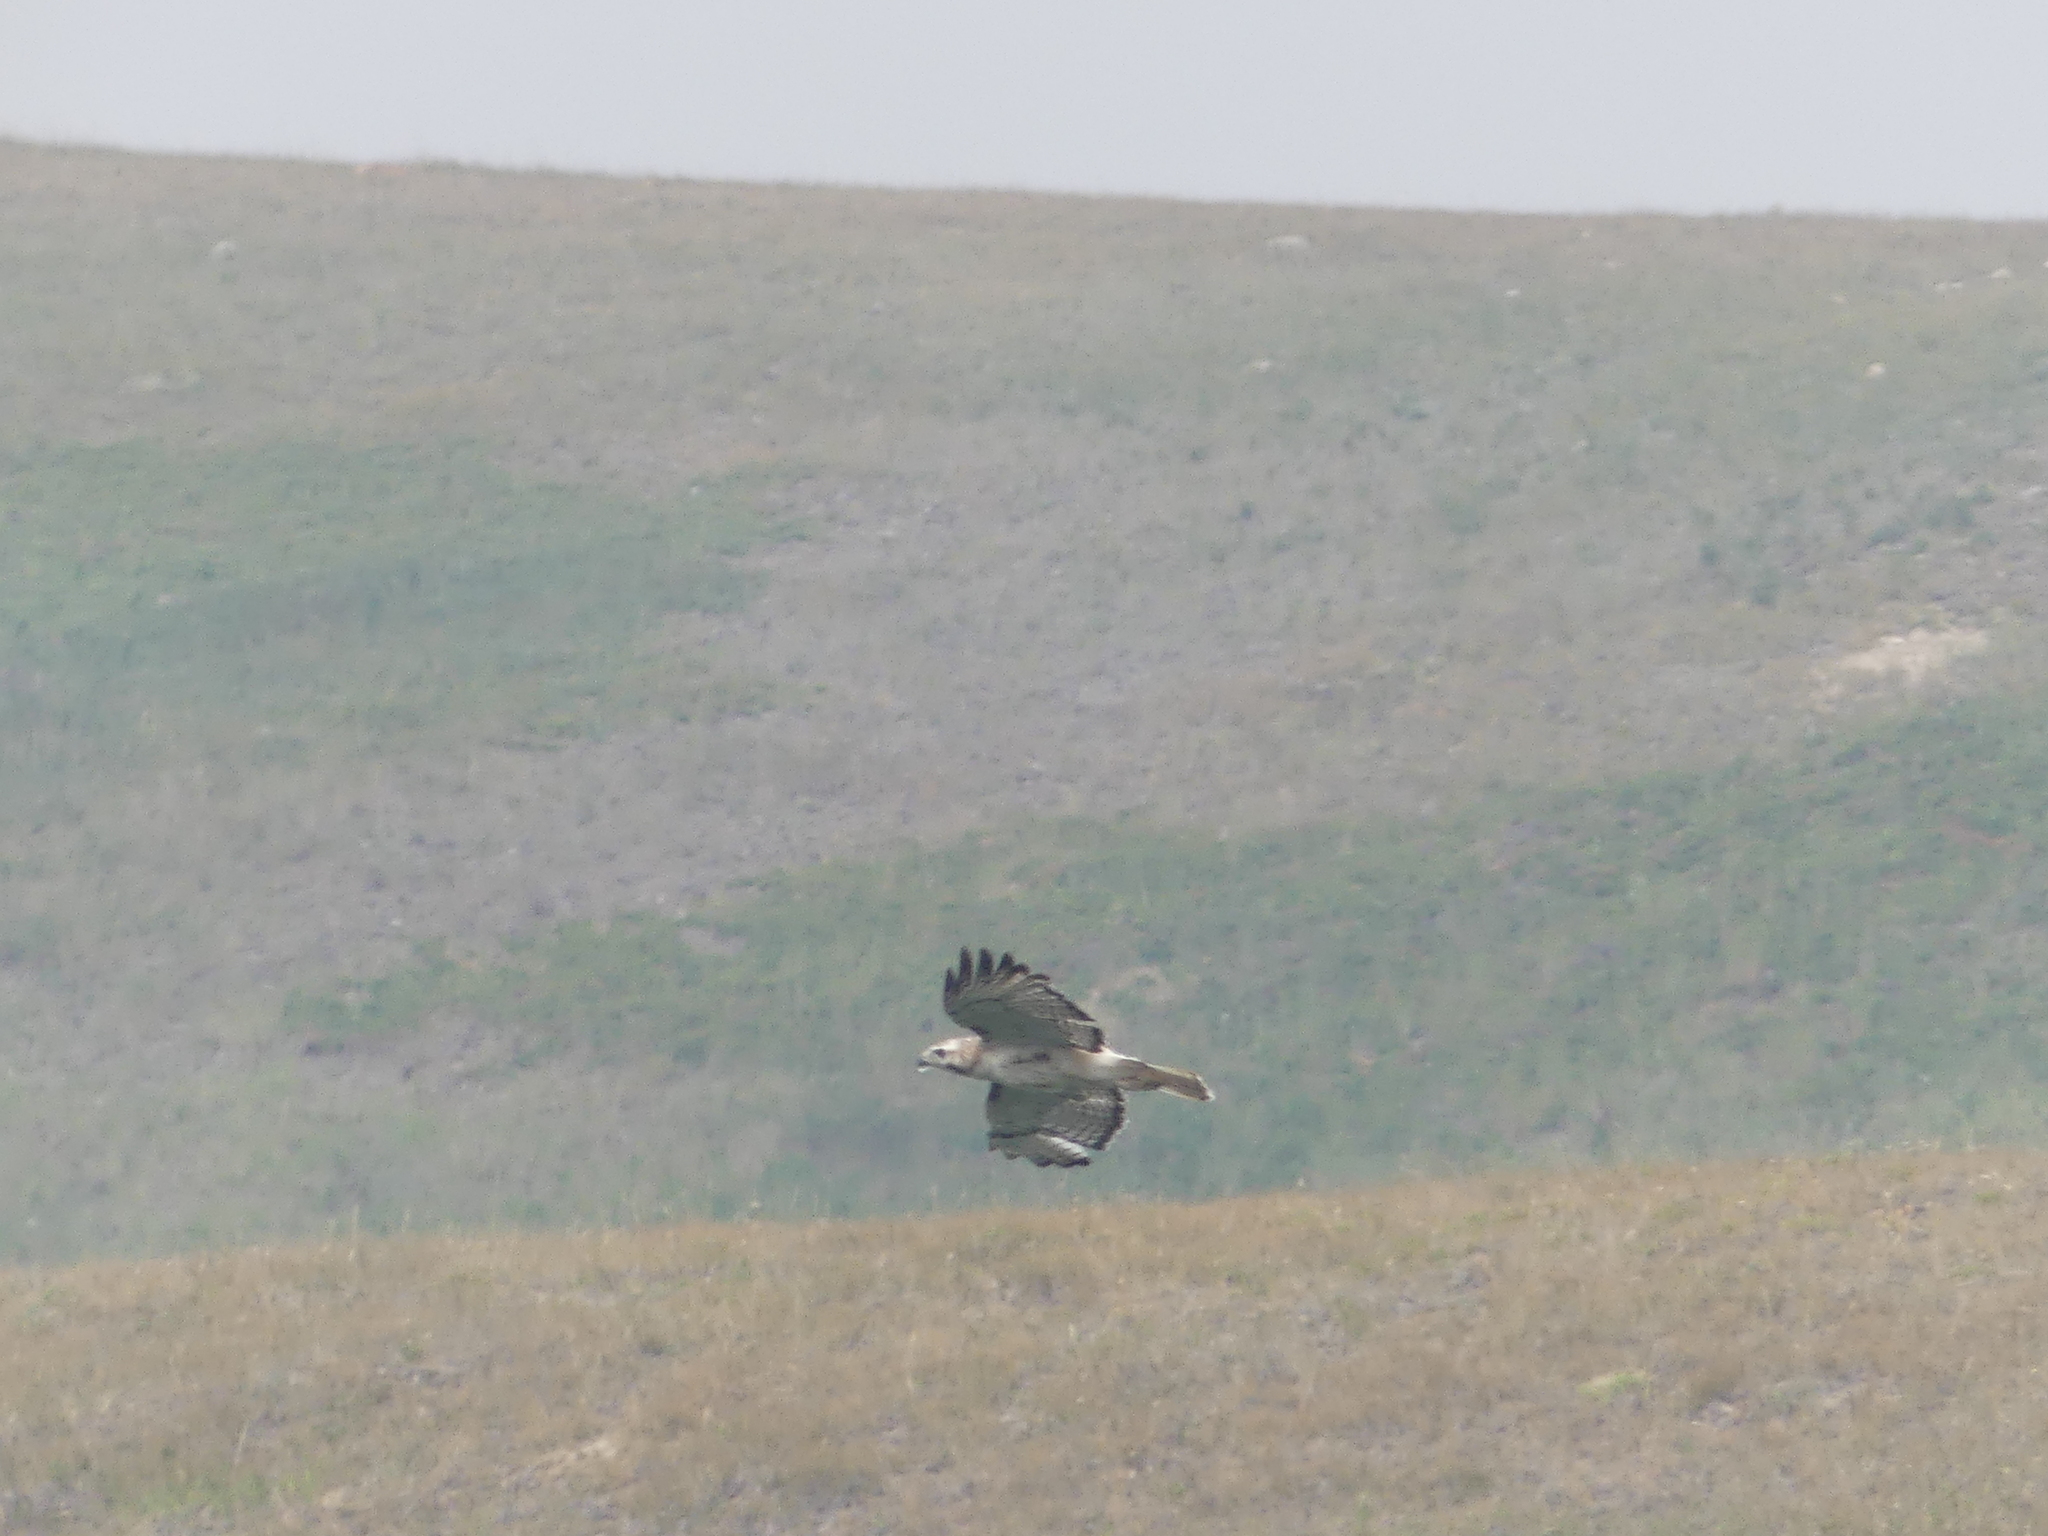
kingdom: Animalia
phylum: Chordata
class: Aves
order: Accipitriformes
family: Accipitridae
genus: Buteo
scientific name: Buteo jamaicensis
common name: Red-tailed hawk
